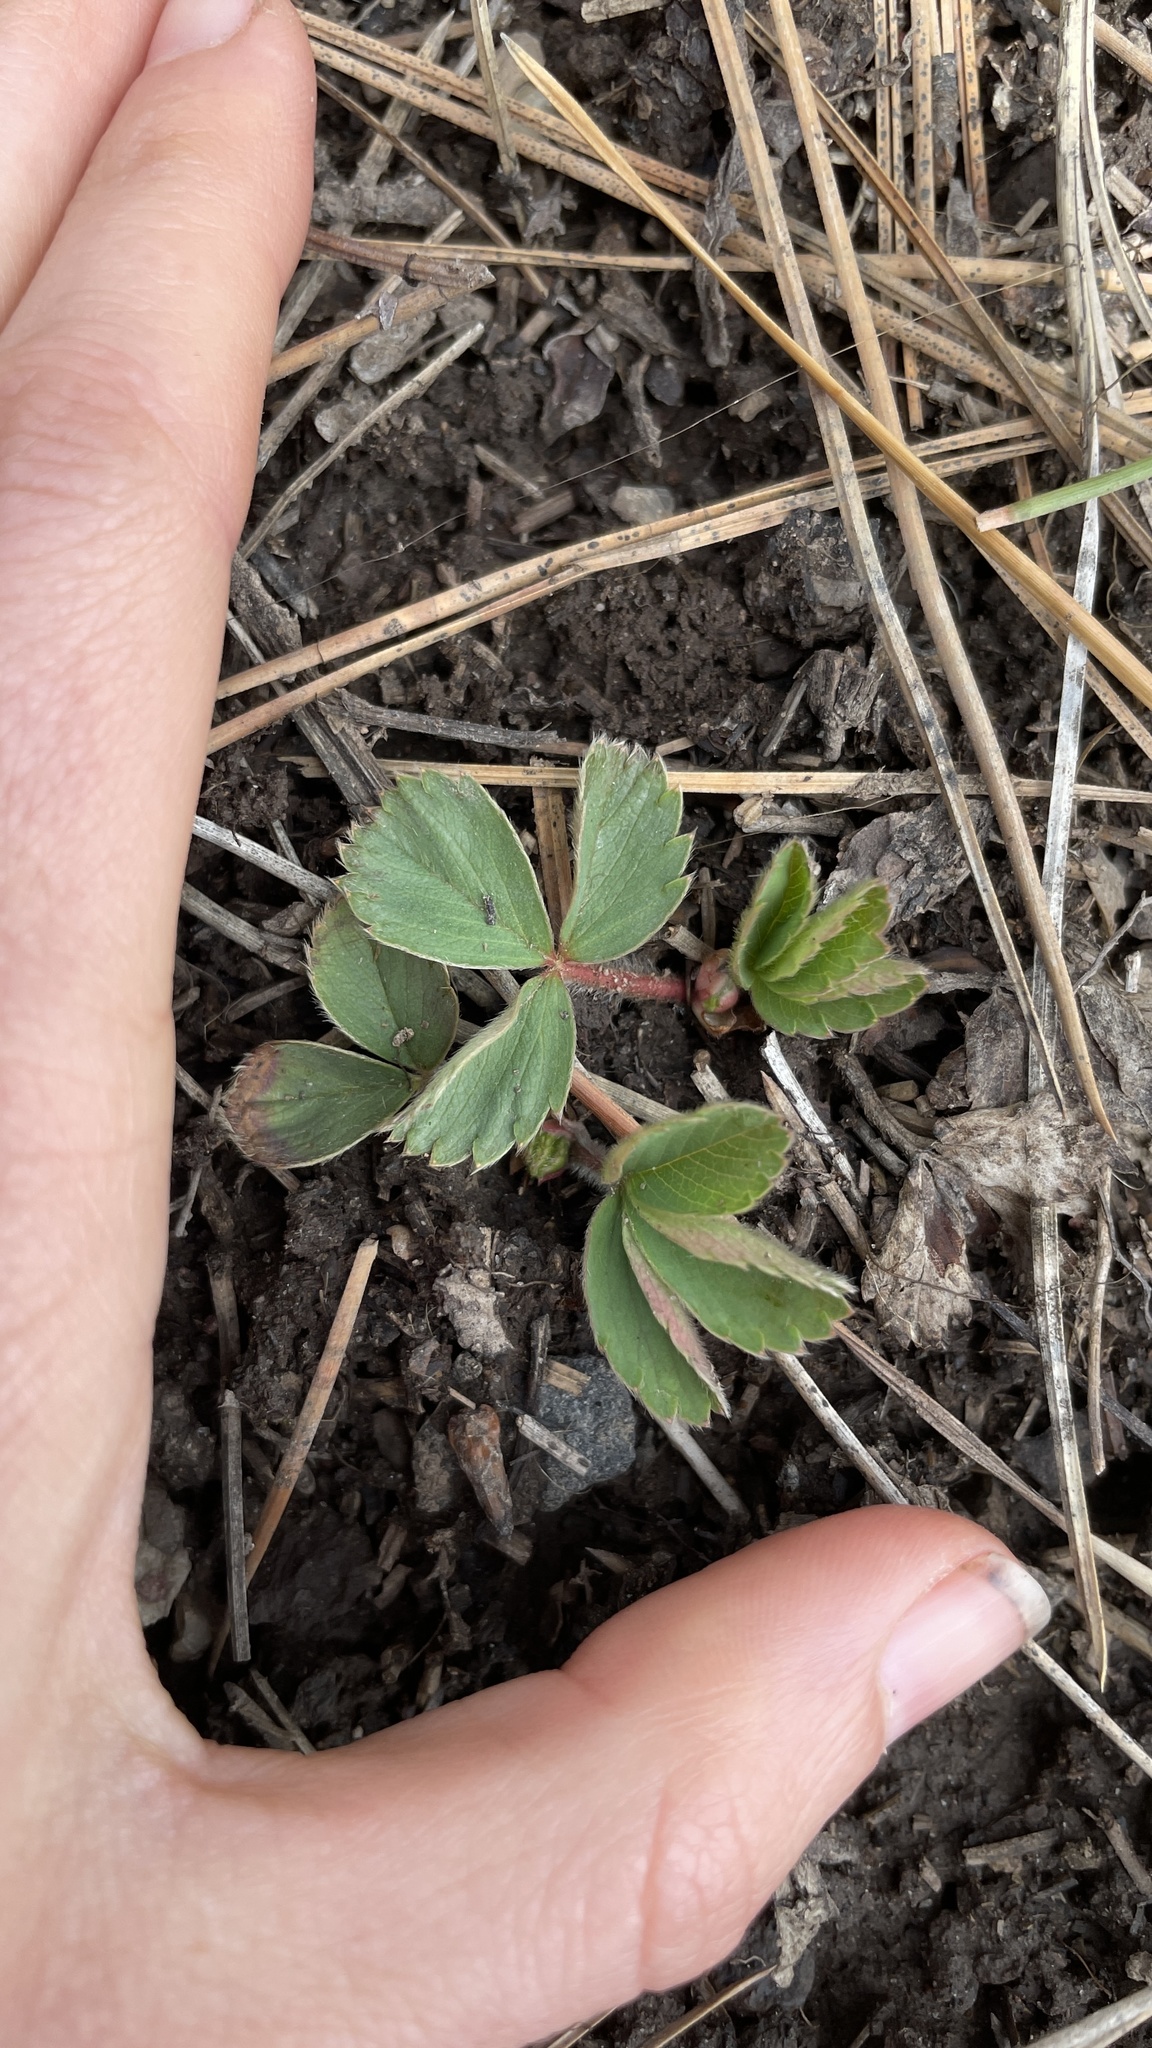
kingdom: Plantae
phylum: Tracheophyta
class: Magnoliopsida
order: Rosales
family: Rosaceae
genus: Fragaria
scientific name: Fragaria virginiana
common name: Thickleaved wild strawberry
